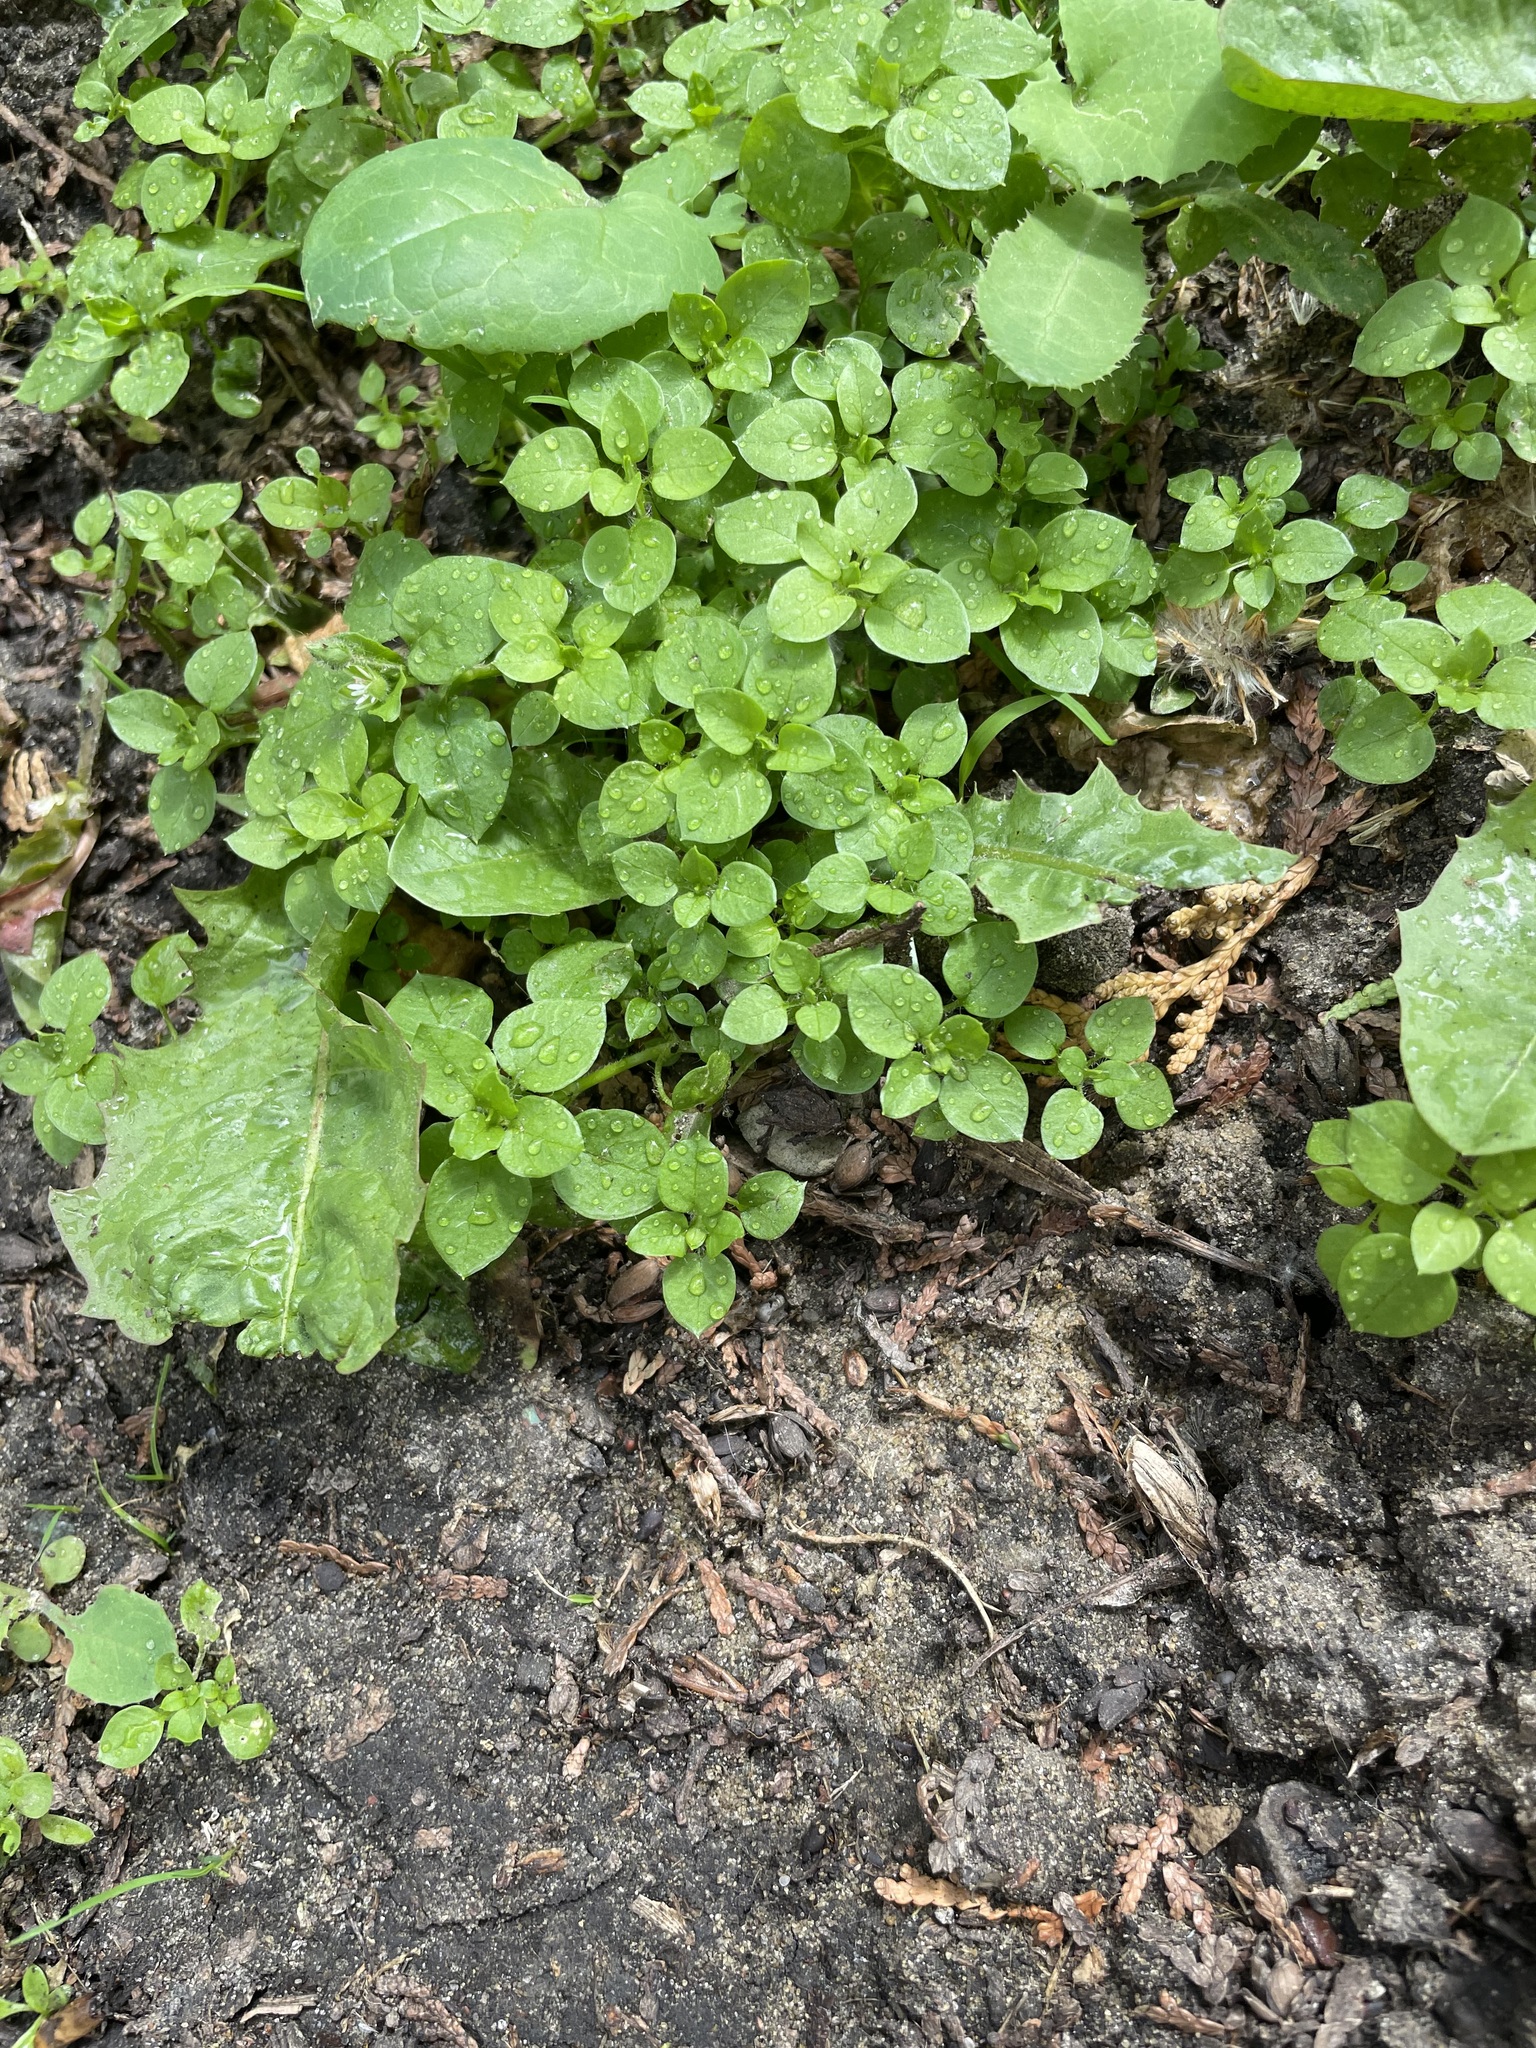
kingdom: Plantae
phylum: Tracheophyta
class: Magnoliopsida
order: Caryophyllales
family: Caryophyllaceae
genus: Stellaria
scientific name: Stellaria media
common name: Common chickweed
